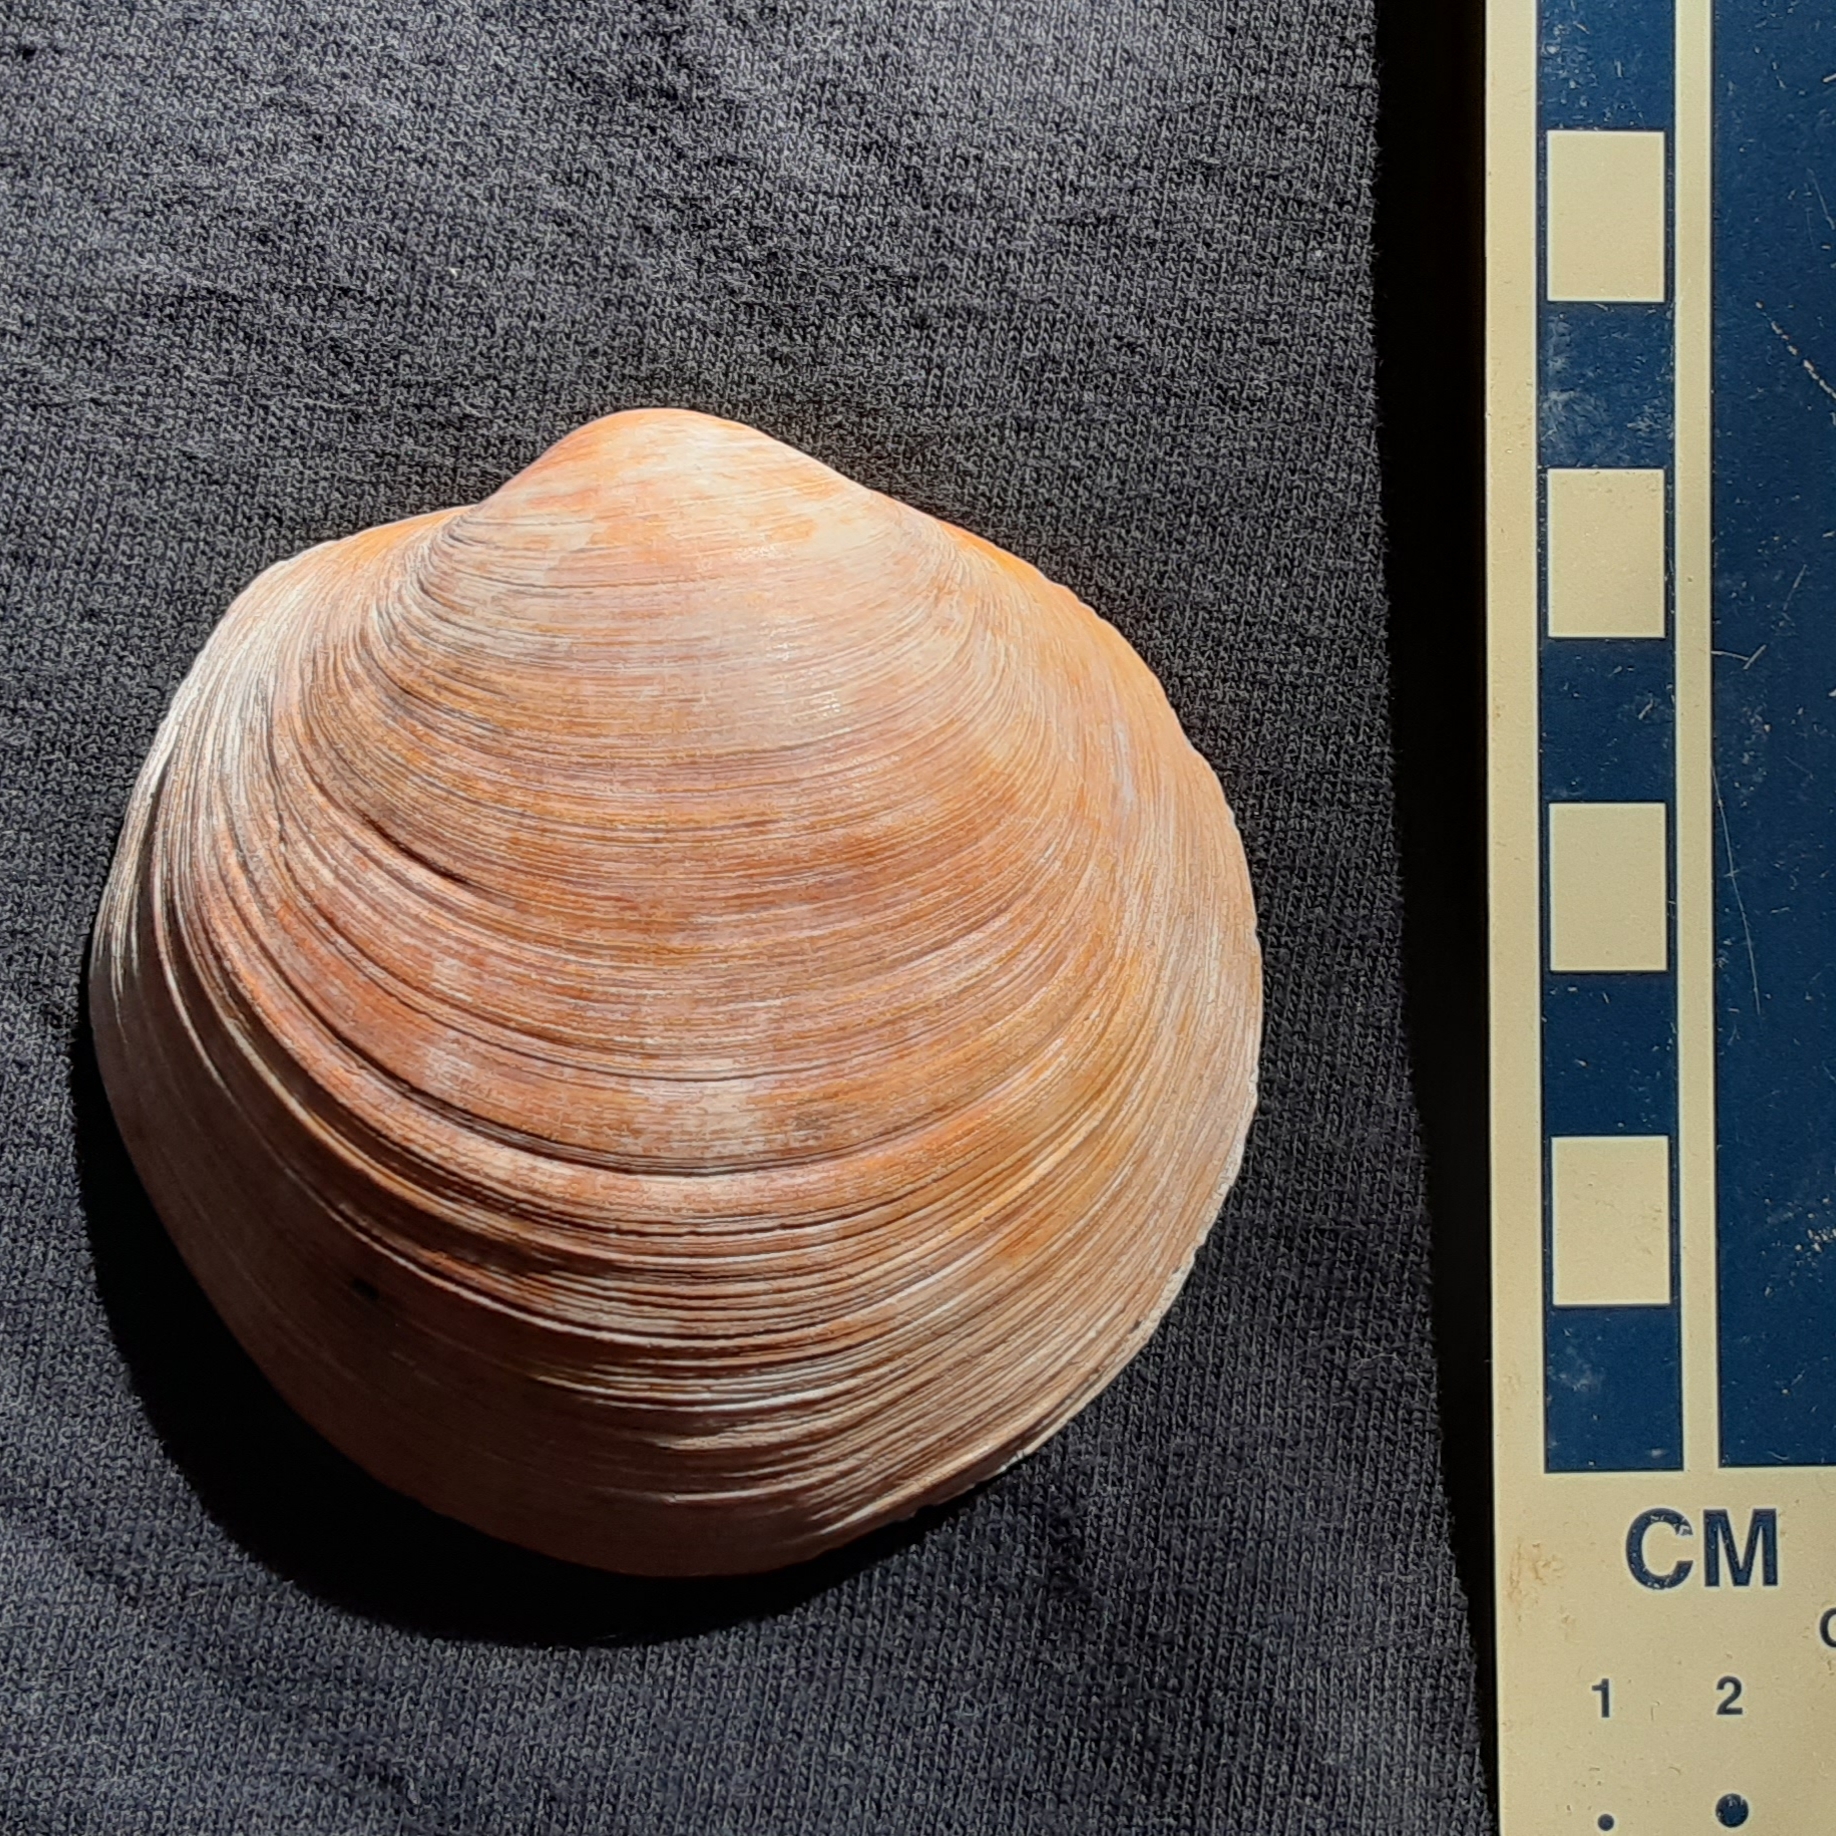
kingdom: Animalia
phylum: Mollusca
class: Bivalvia
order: Lucinida
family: Lucinidae
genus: Pegophysema
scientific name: Pegophysema schrammi
